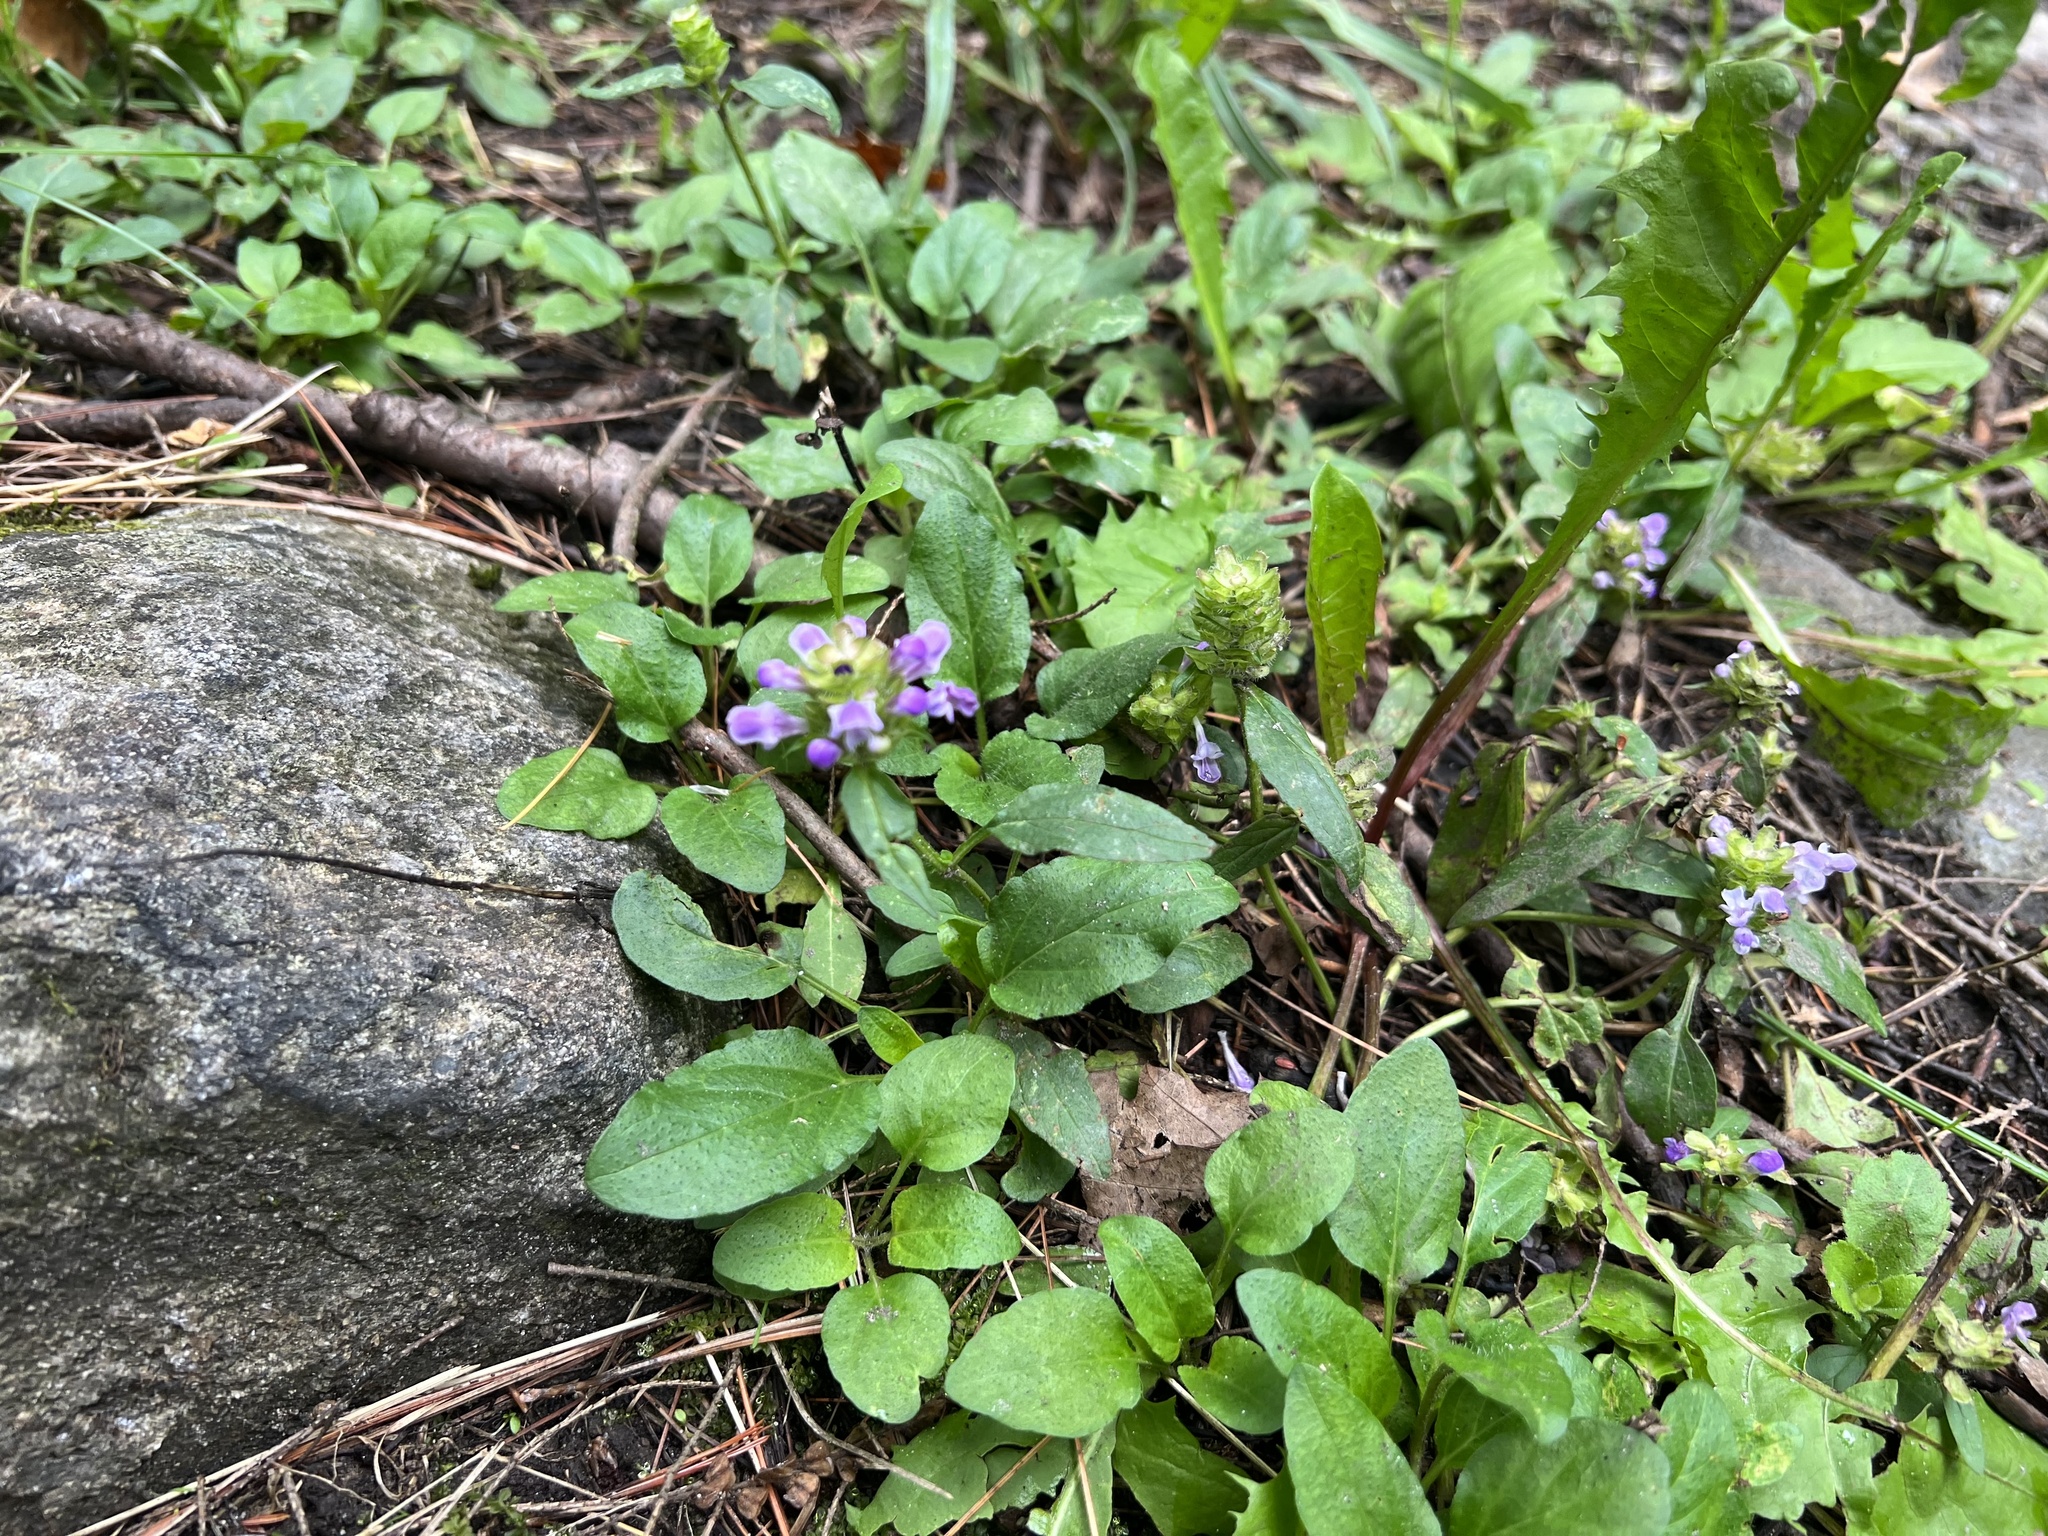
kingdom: Plantae
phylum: Tracheophyta
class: Magnoliopsida
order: Lamiales
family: Lamiaceae
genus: Prunella
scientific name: Prunella vulgaris
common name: Heal-all
